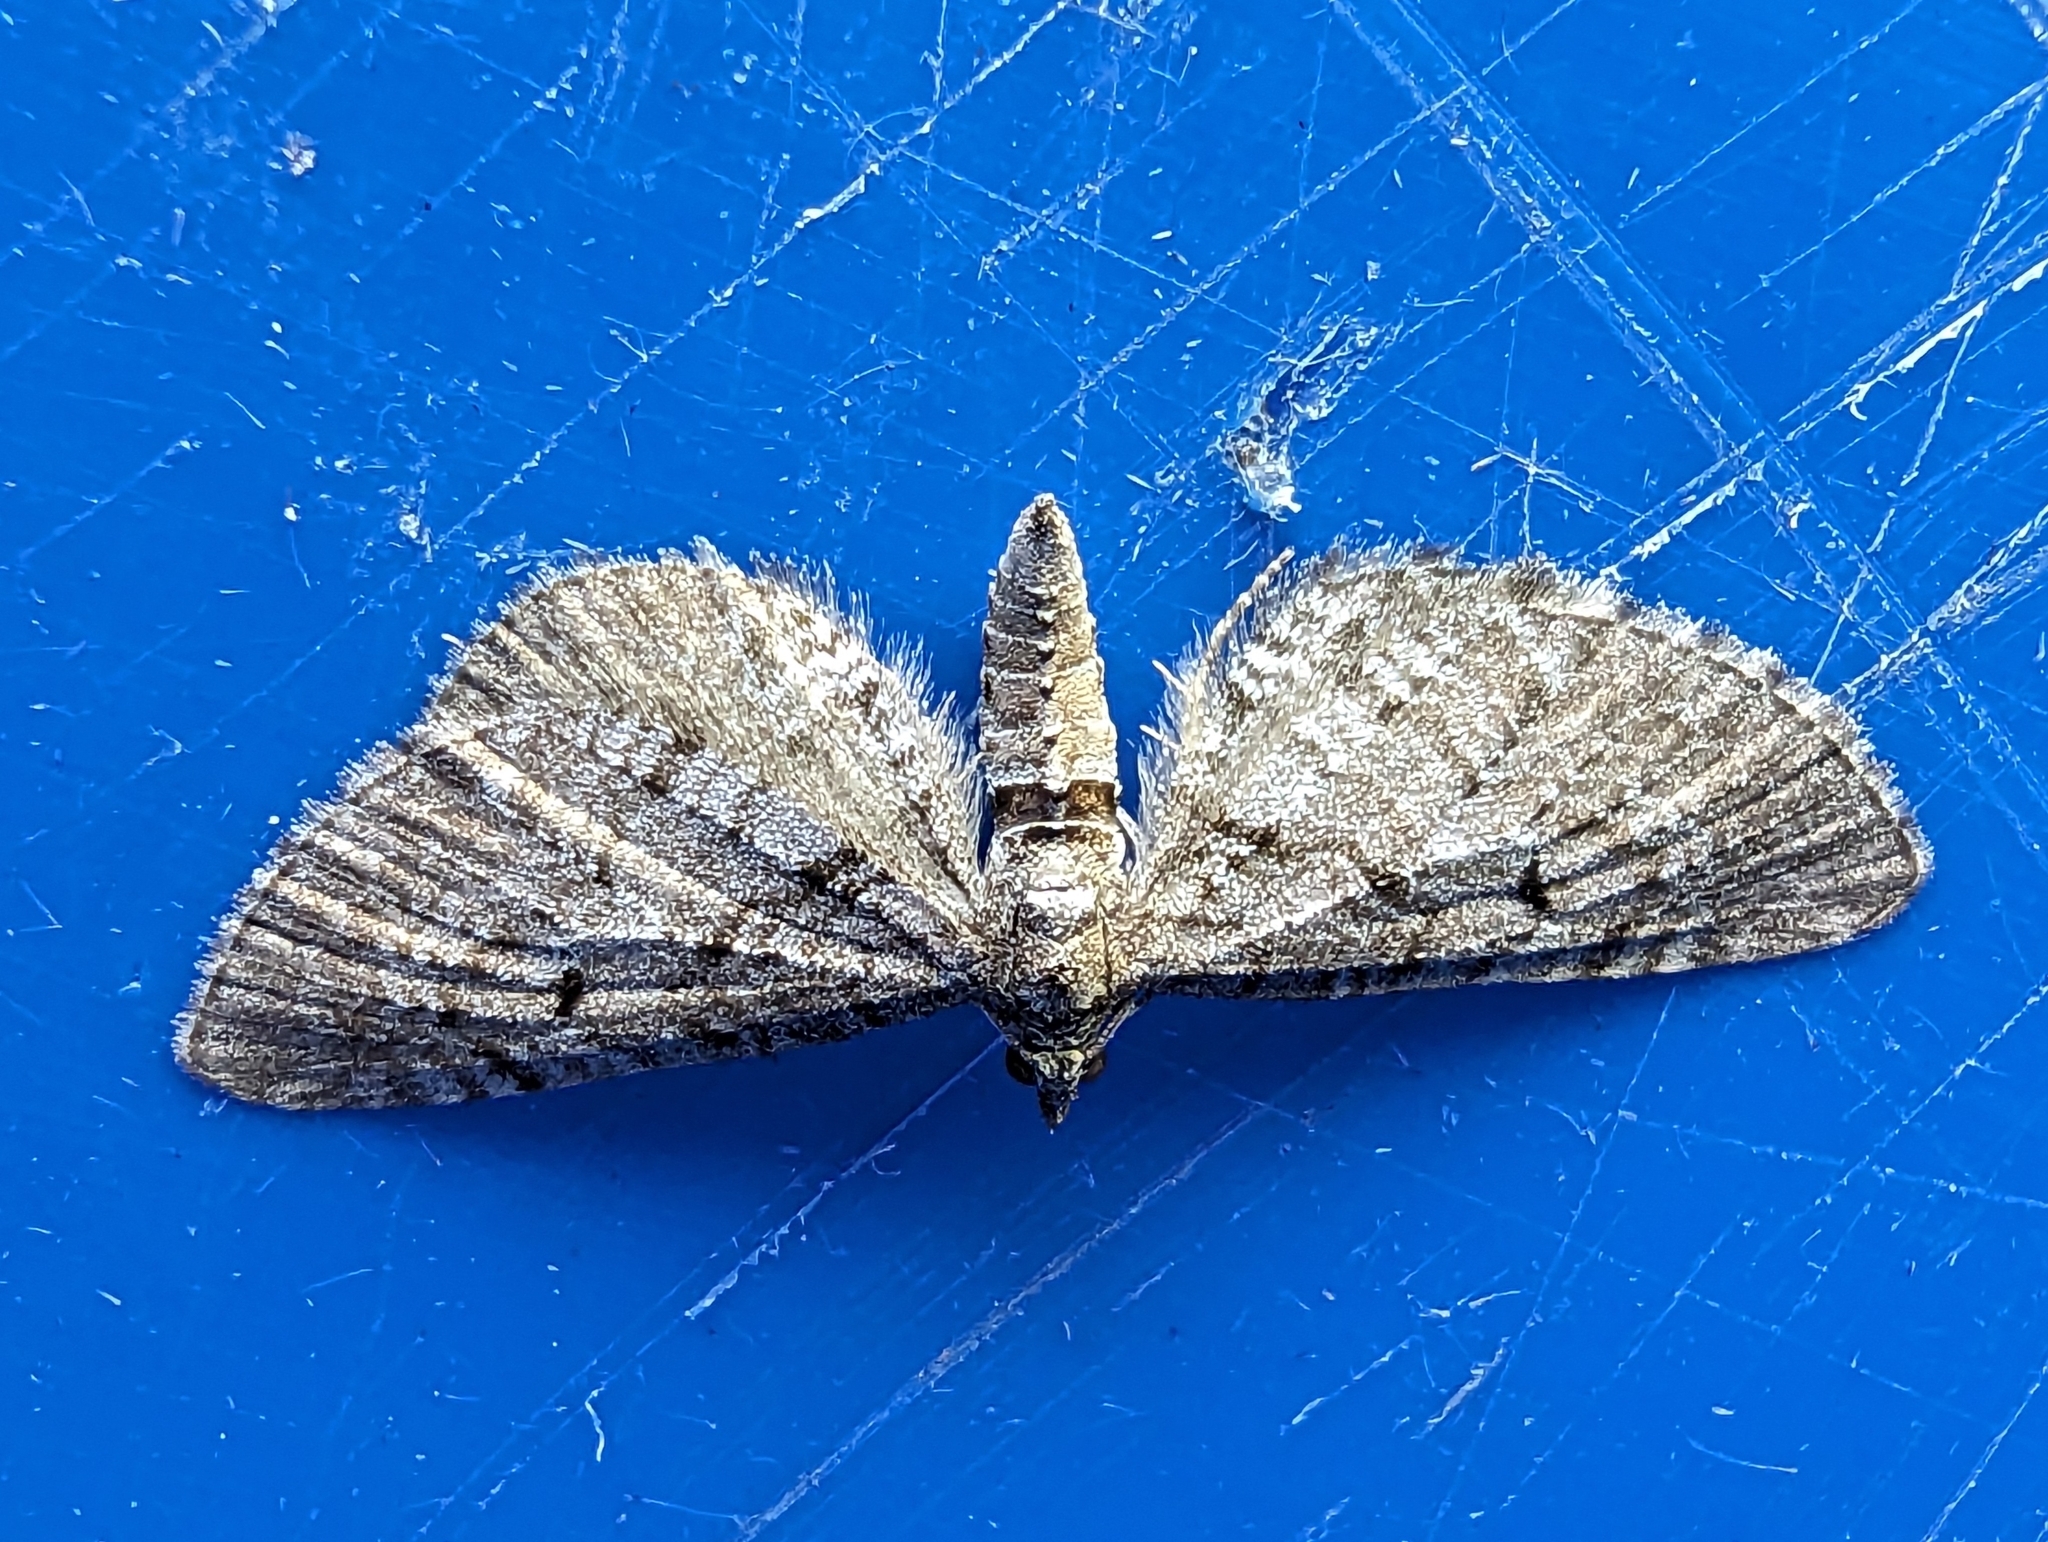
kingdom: Animalia
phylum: Arthropoda
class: Insecta
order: Lepidoptera
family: Geometridae
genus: Eupithecia
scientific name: Eupithecia intricata
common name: Freyers pug
